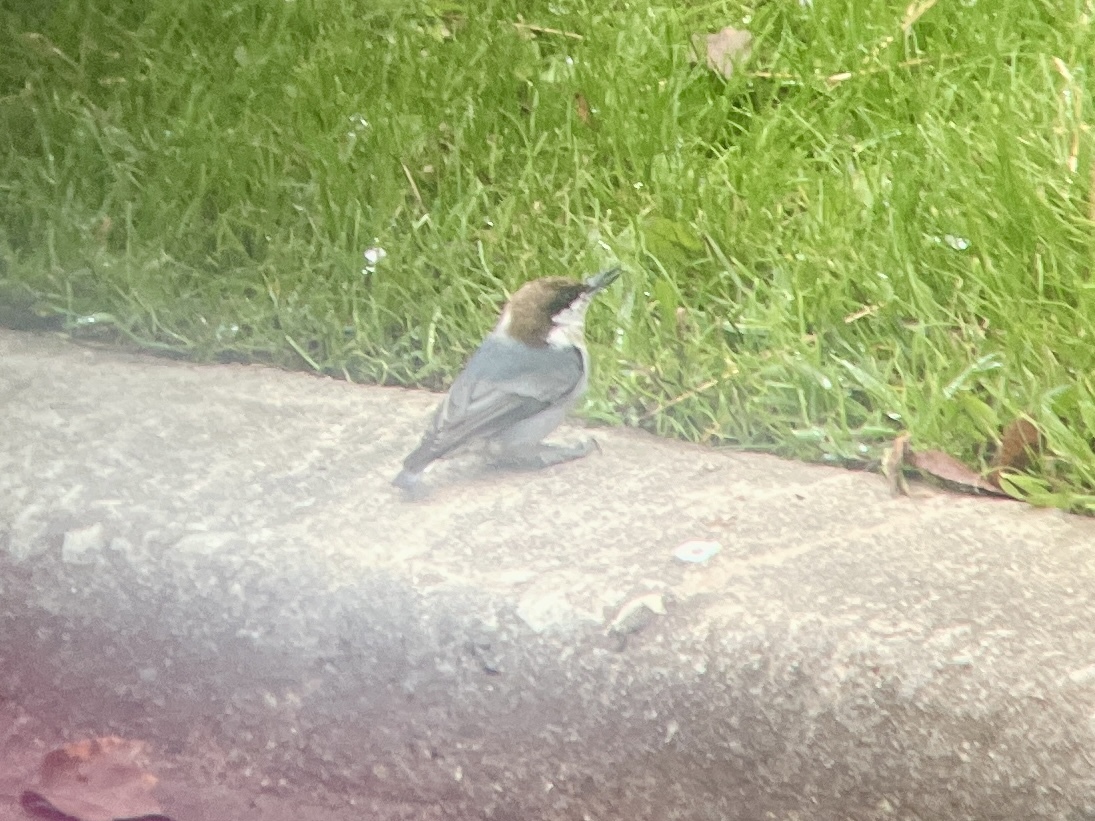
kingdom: Animalia
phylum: Chordata
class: Aves
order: Passeriformes
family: Sittidae
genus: Sitta
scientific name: Sitta pusilla
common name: Brown-headed nuthatch
